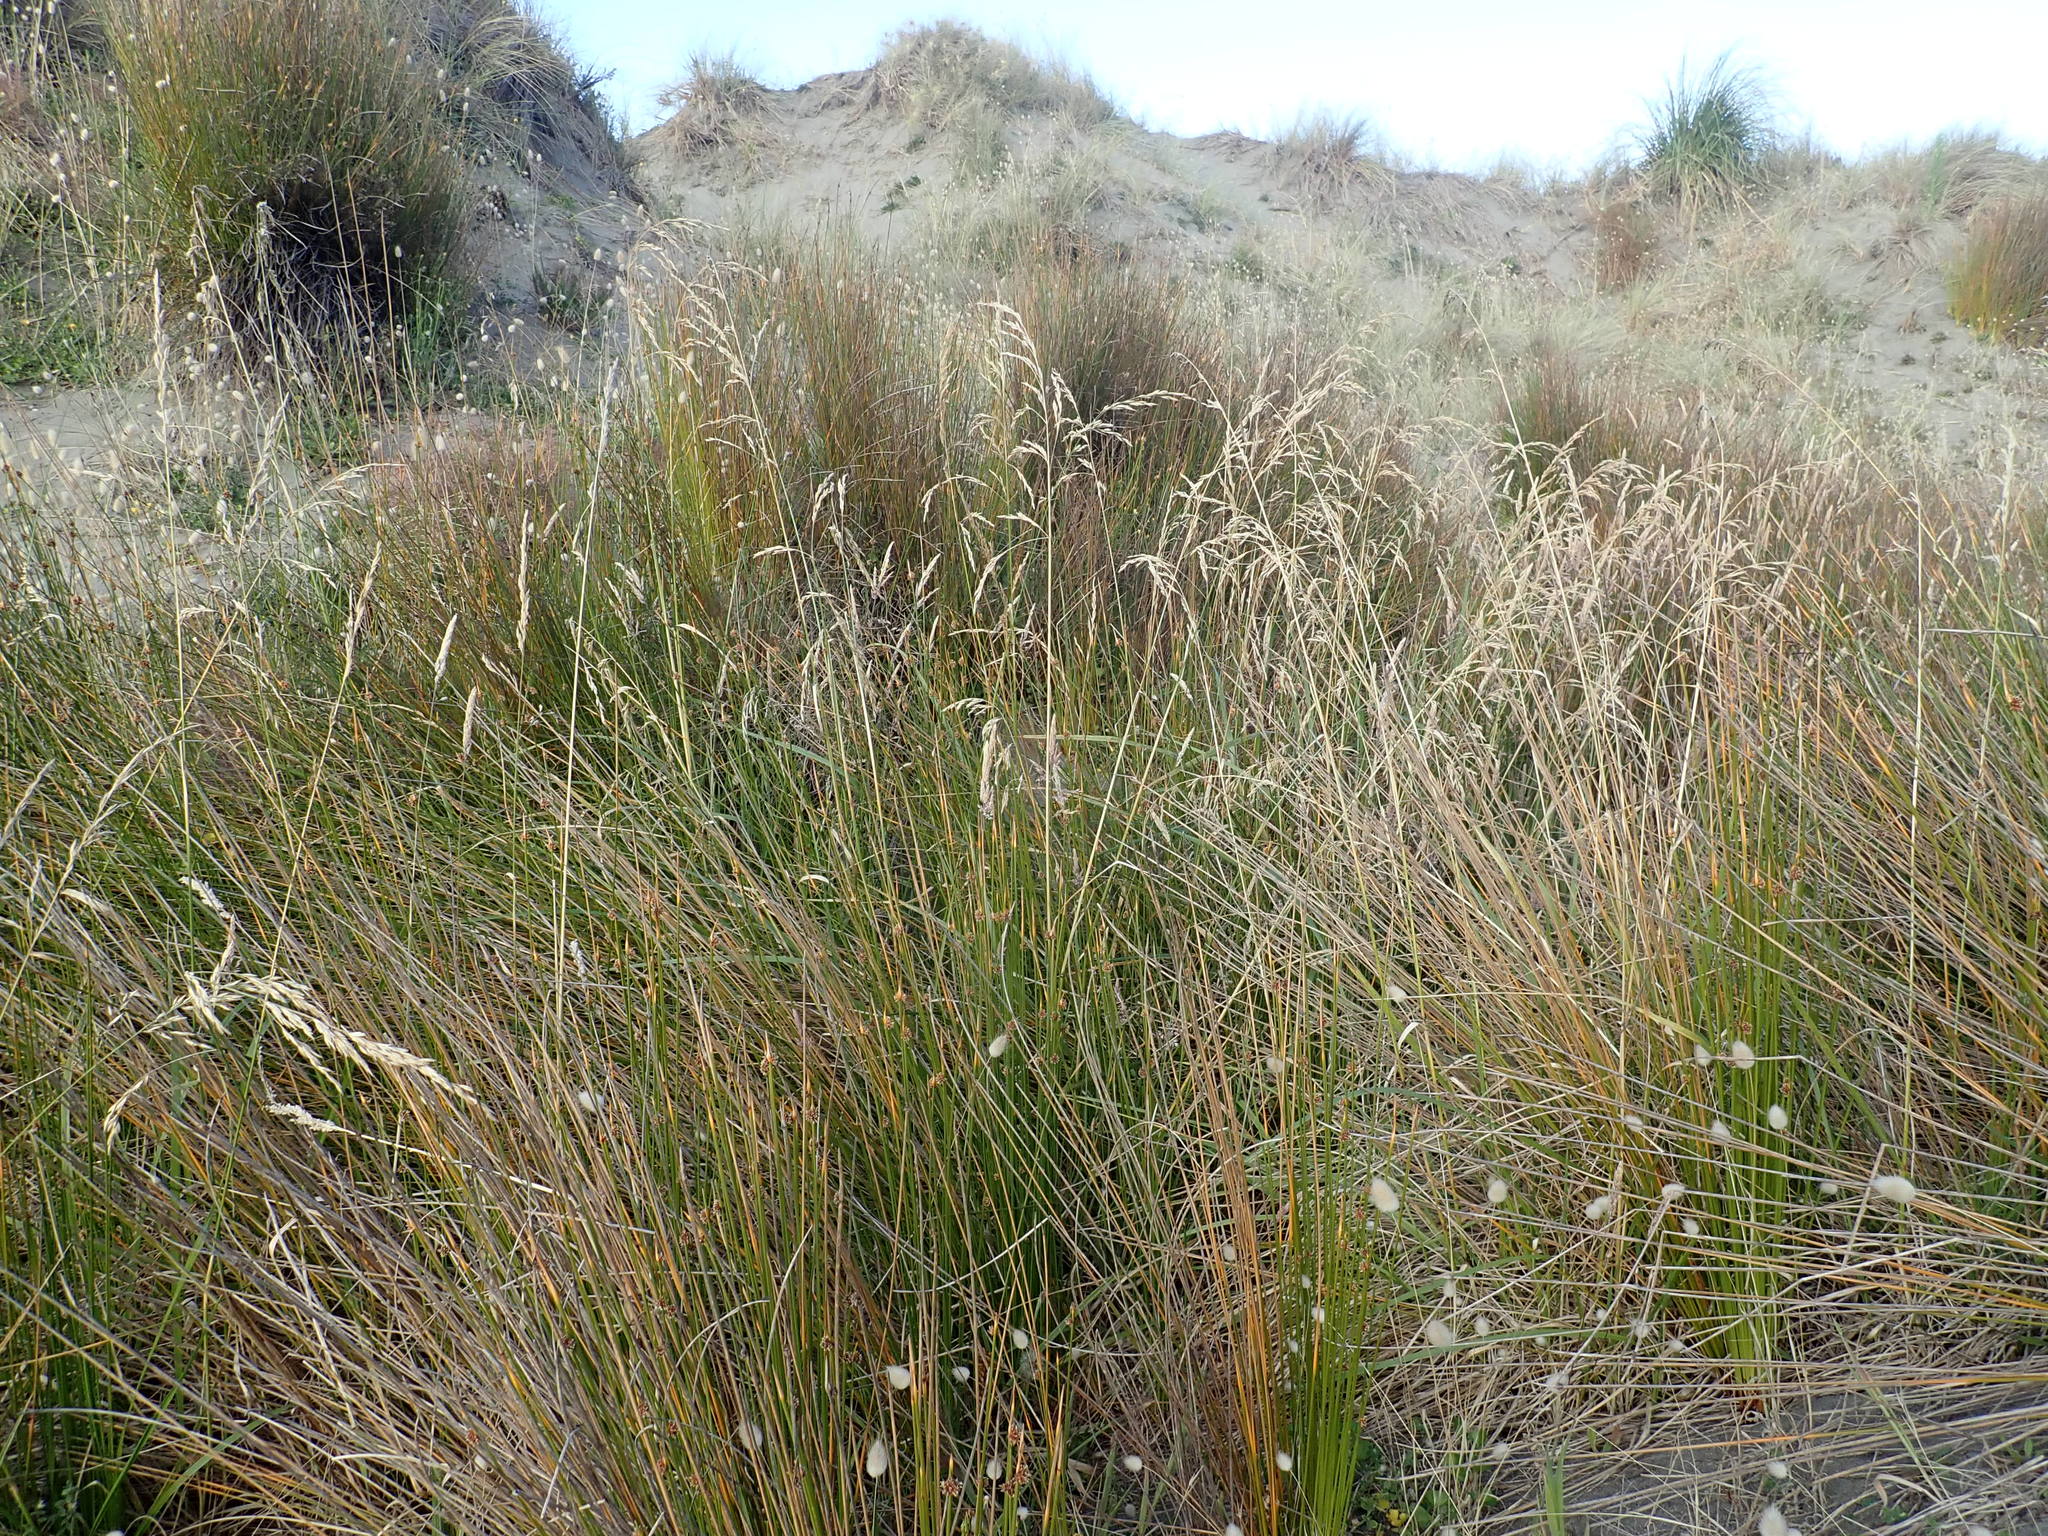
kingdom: Plantae
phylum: Tracheophyta
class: Liliopsida
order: Poales
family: Poaceae
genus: Lolium
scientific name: Lolium arundinaceum
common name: Reed fescue
